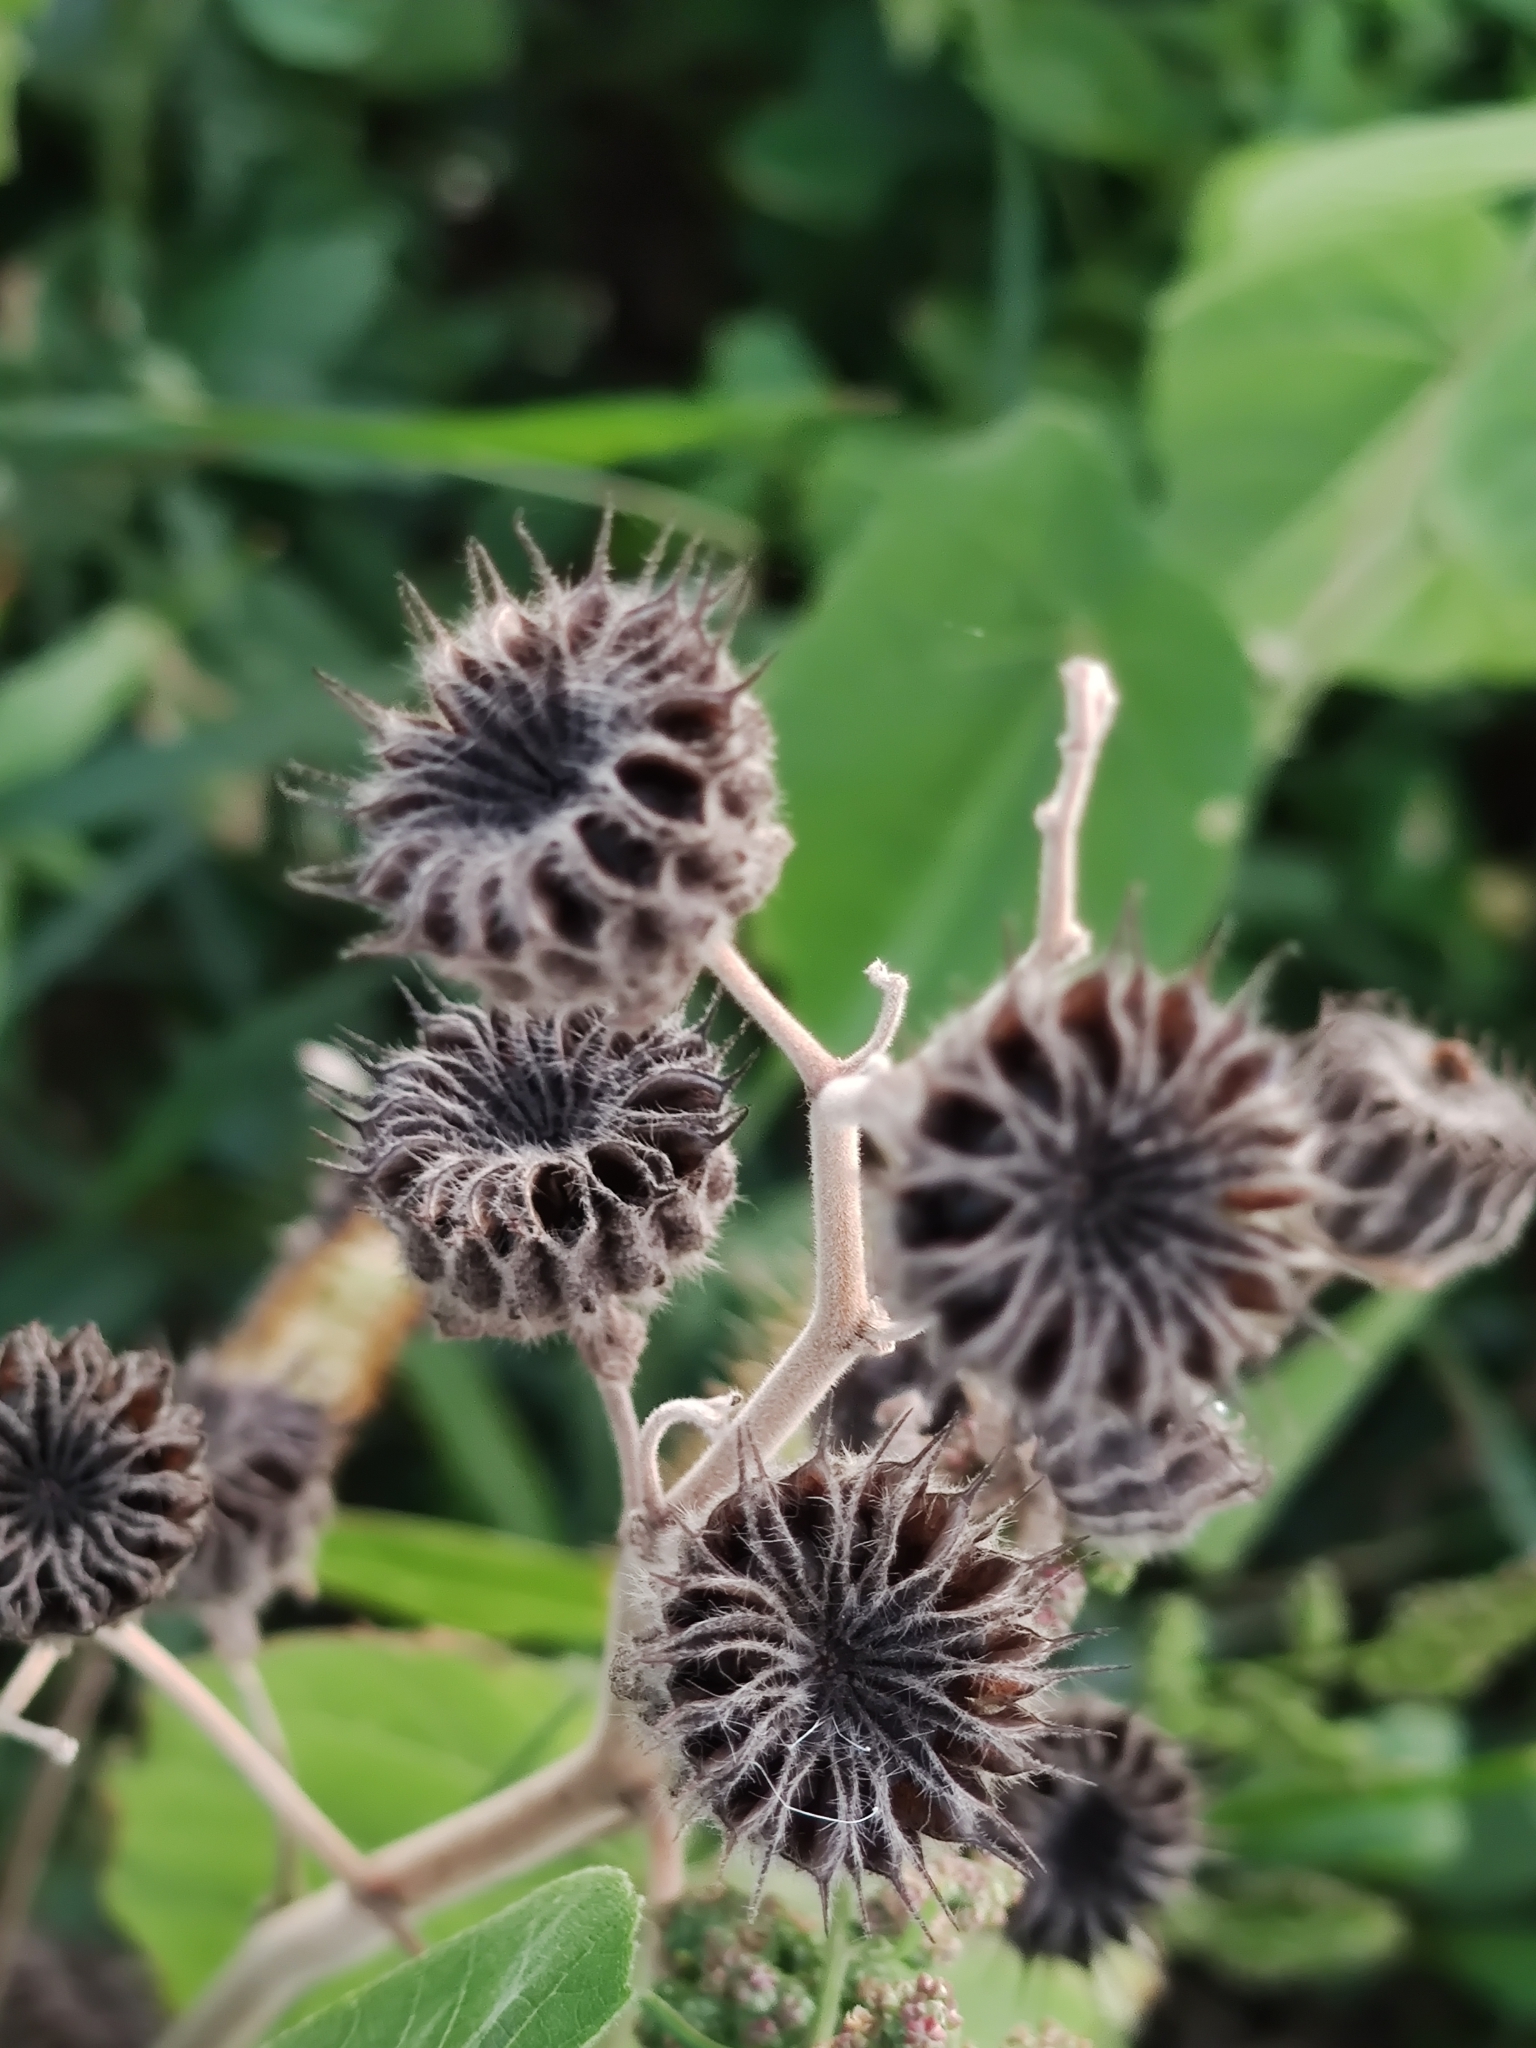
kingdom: Plantae
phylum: Tracheophyta
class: Magnoliopsida
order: Malvales
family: Malvaceae
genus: Abutilon
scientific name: Abutilon theophrasti
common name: Velvetleaf
